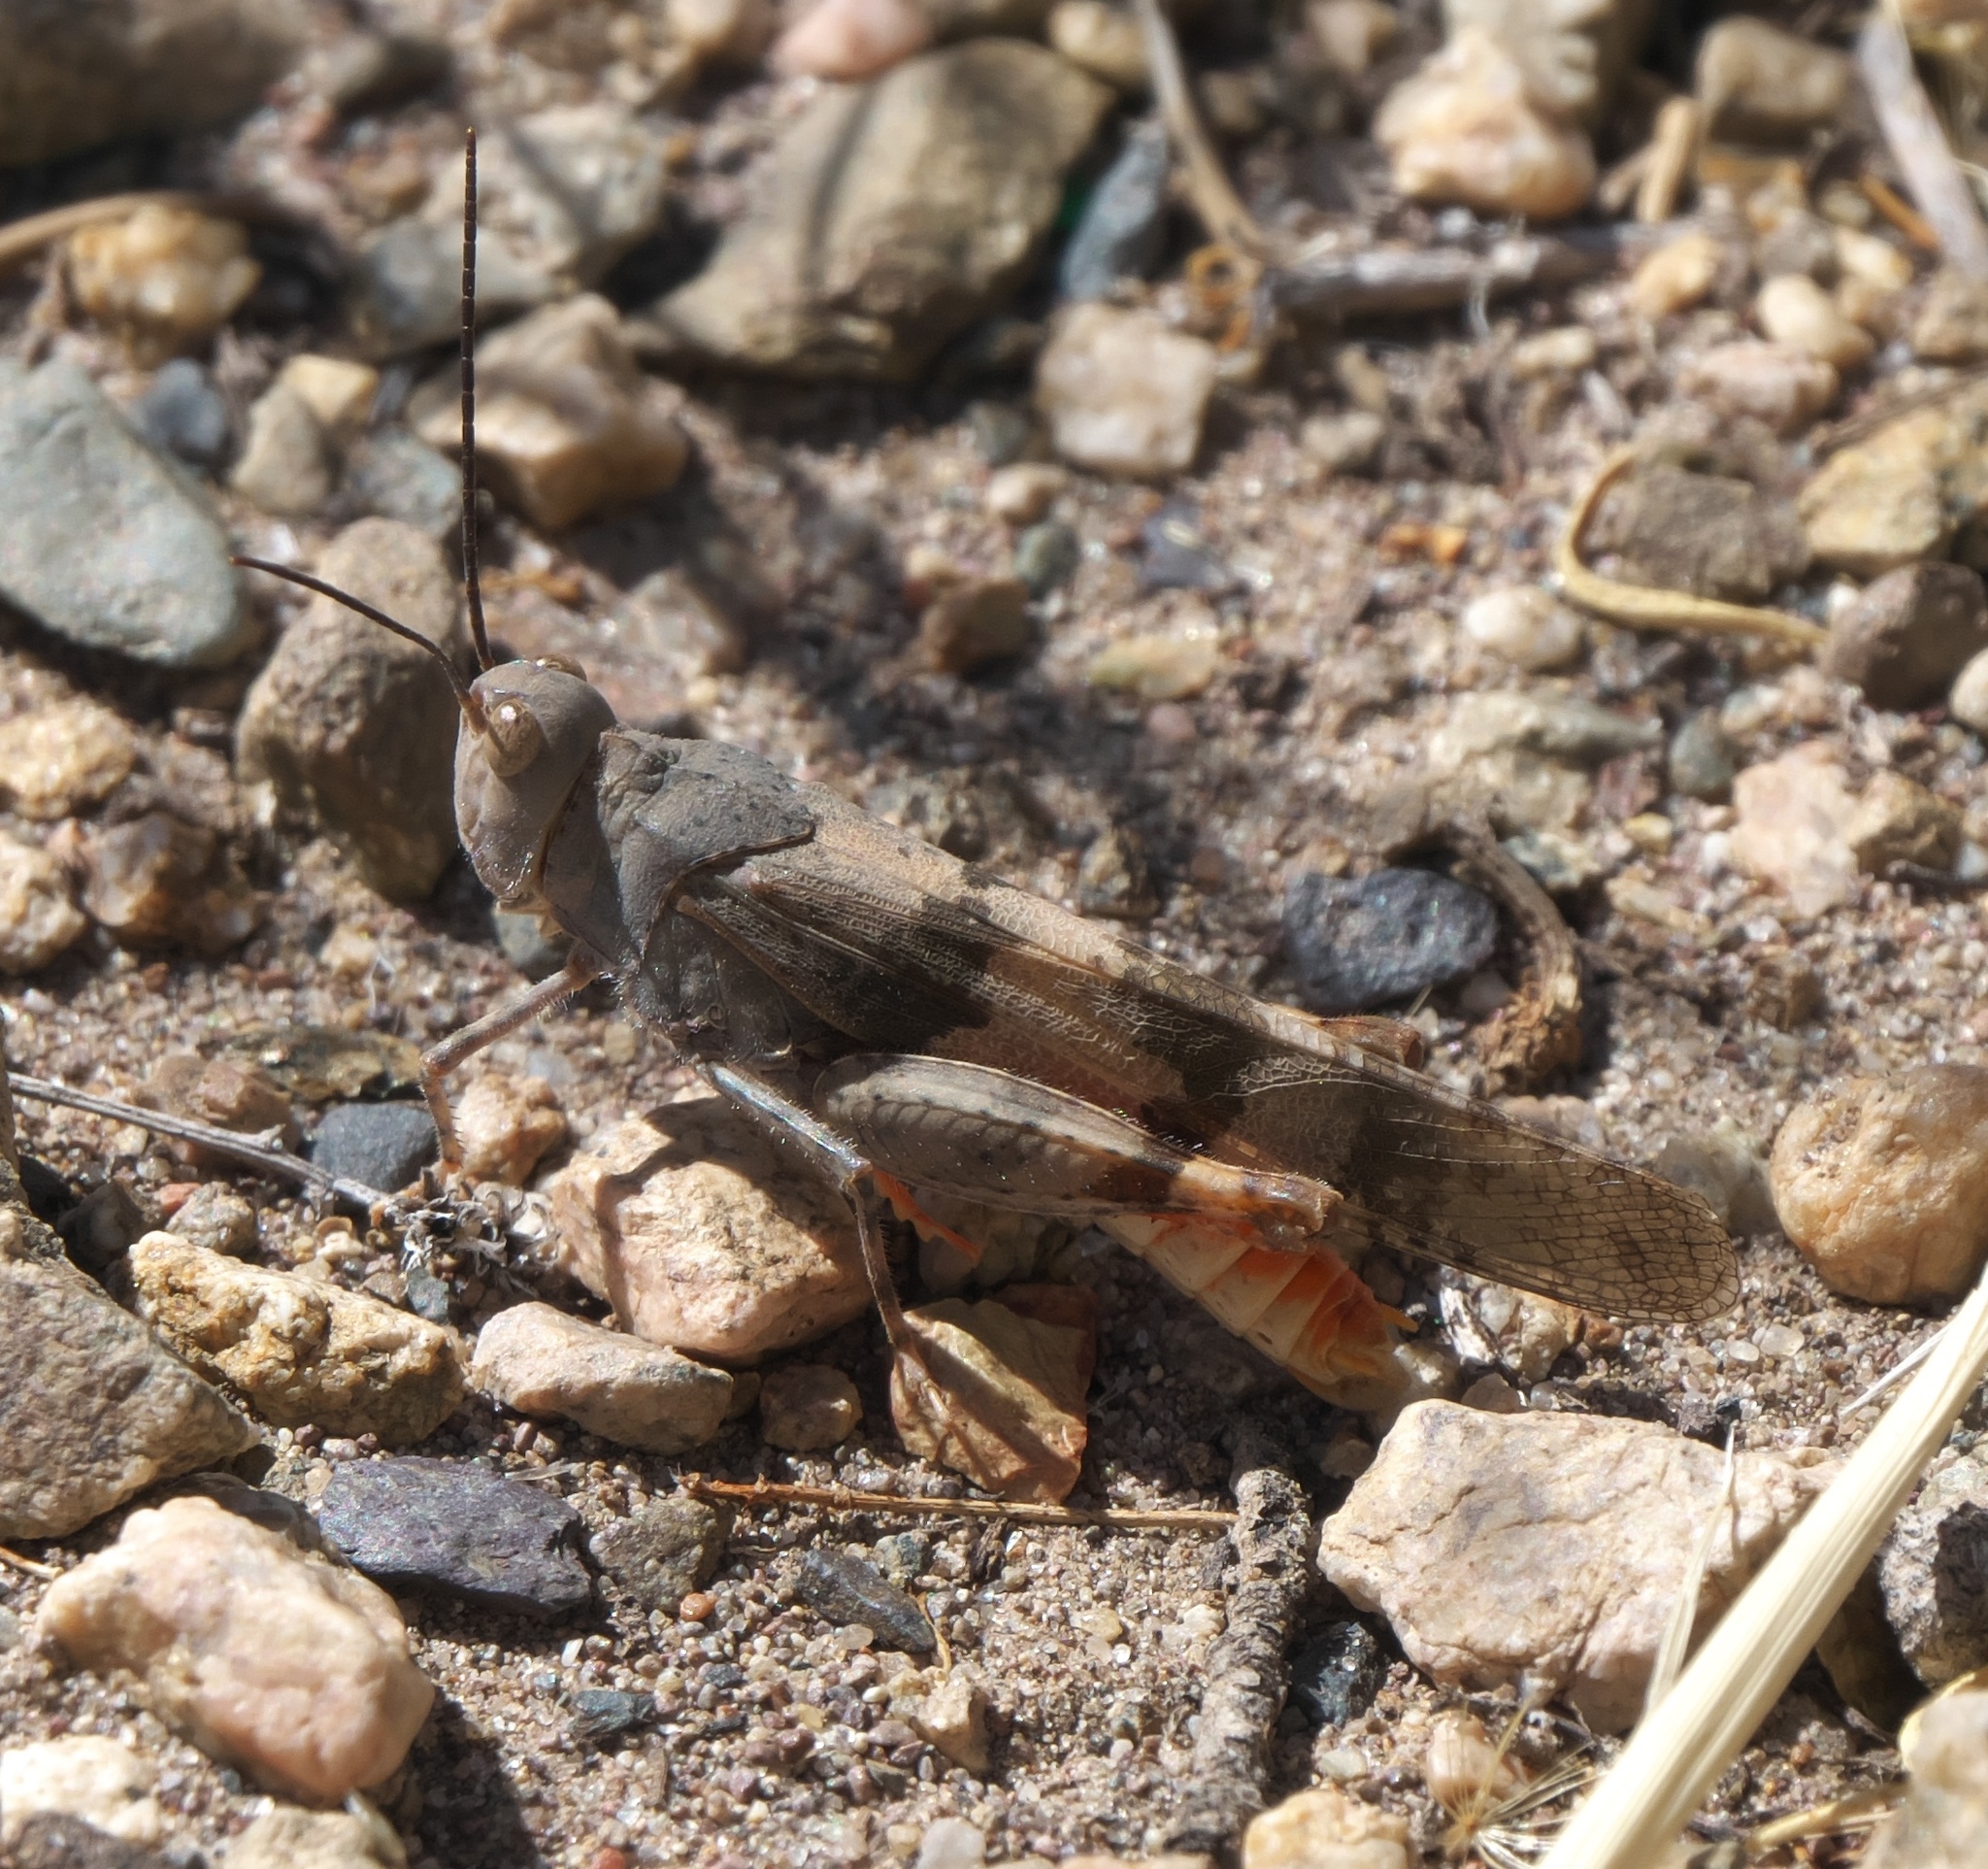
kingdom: Animalia
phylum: Arthropoda
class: Insecta
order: Orthoptera
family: Acrididae
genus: Trimerotropis
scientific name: Trimerotropis melanoptera
